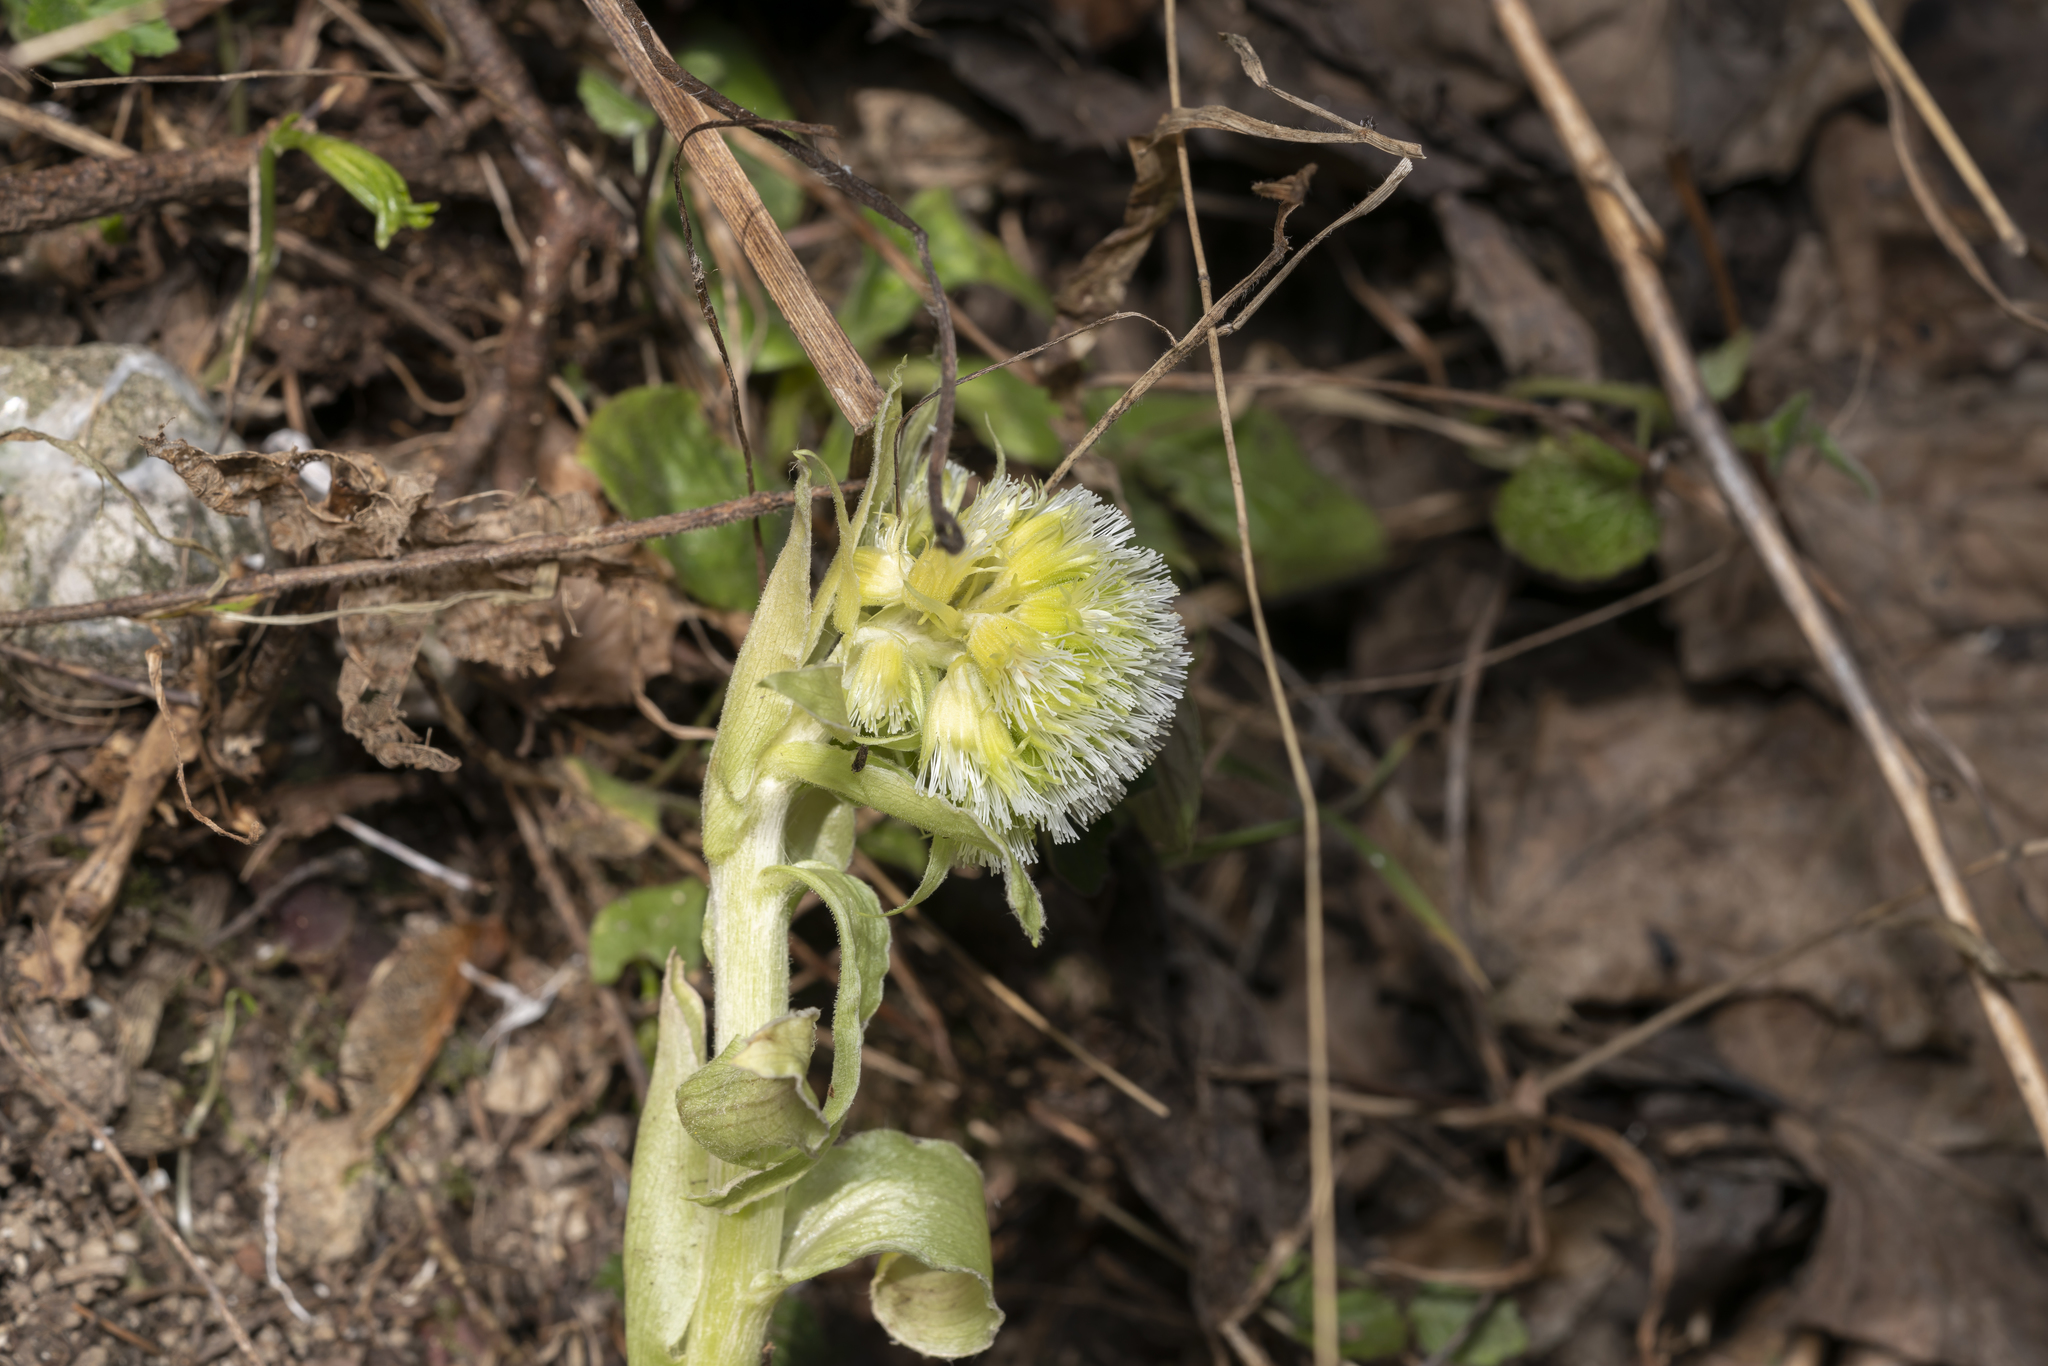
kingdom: Plantae
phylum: Tracheophyta
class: Magnoliopsida
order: Asterales
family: Asteraceae
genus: Petasites
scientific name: Petasites albus
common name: White butterbur
